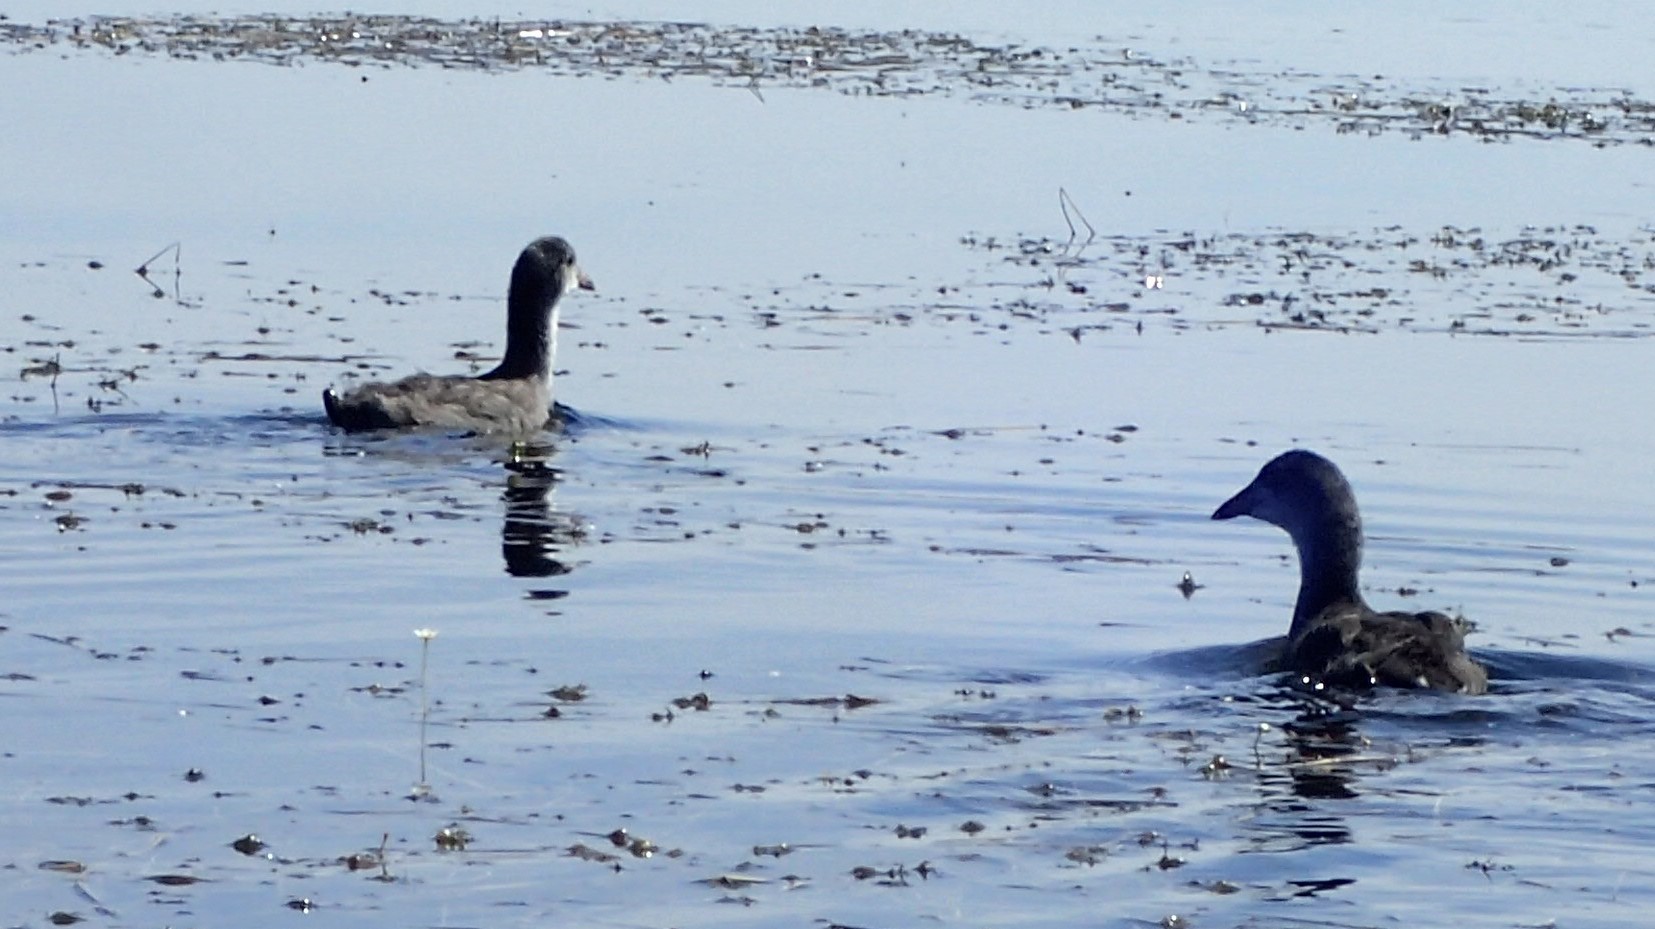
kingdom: Animalia
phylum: Chordata
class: Aves
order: Gruiformes
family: Rallidae
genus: Fulica
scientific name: Fulica americana
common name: American coot
